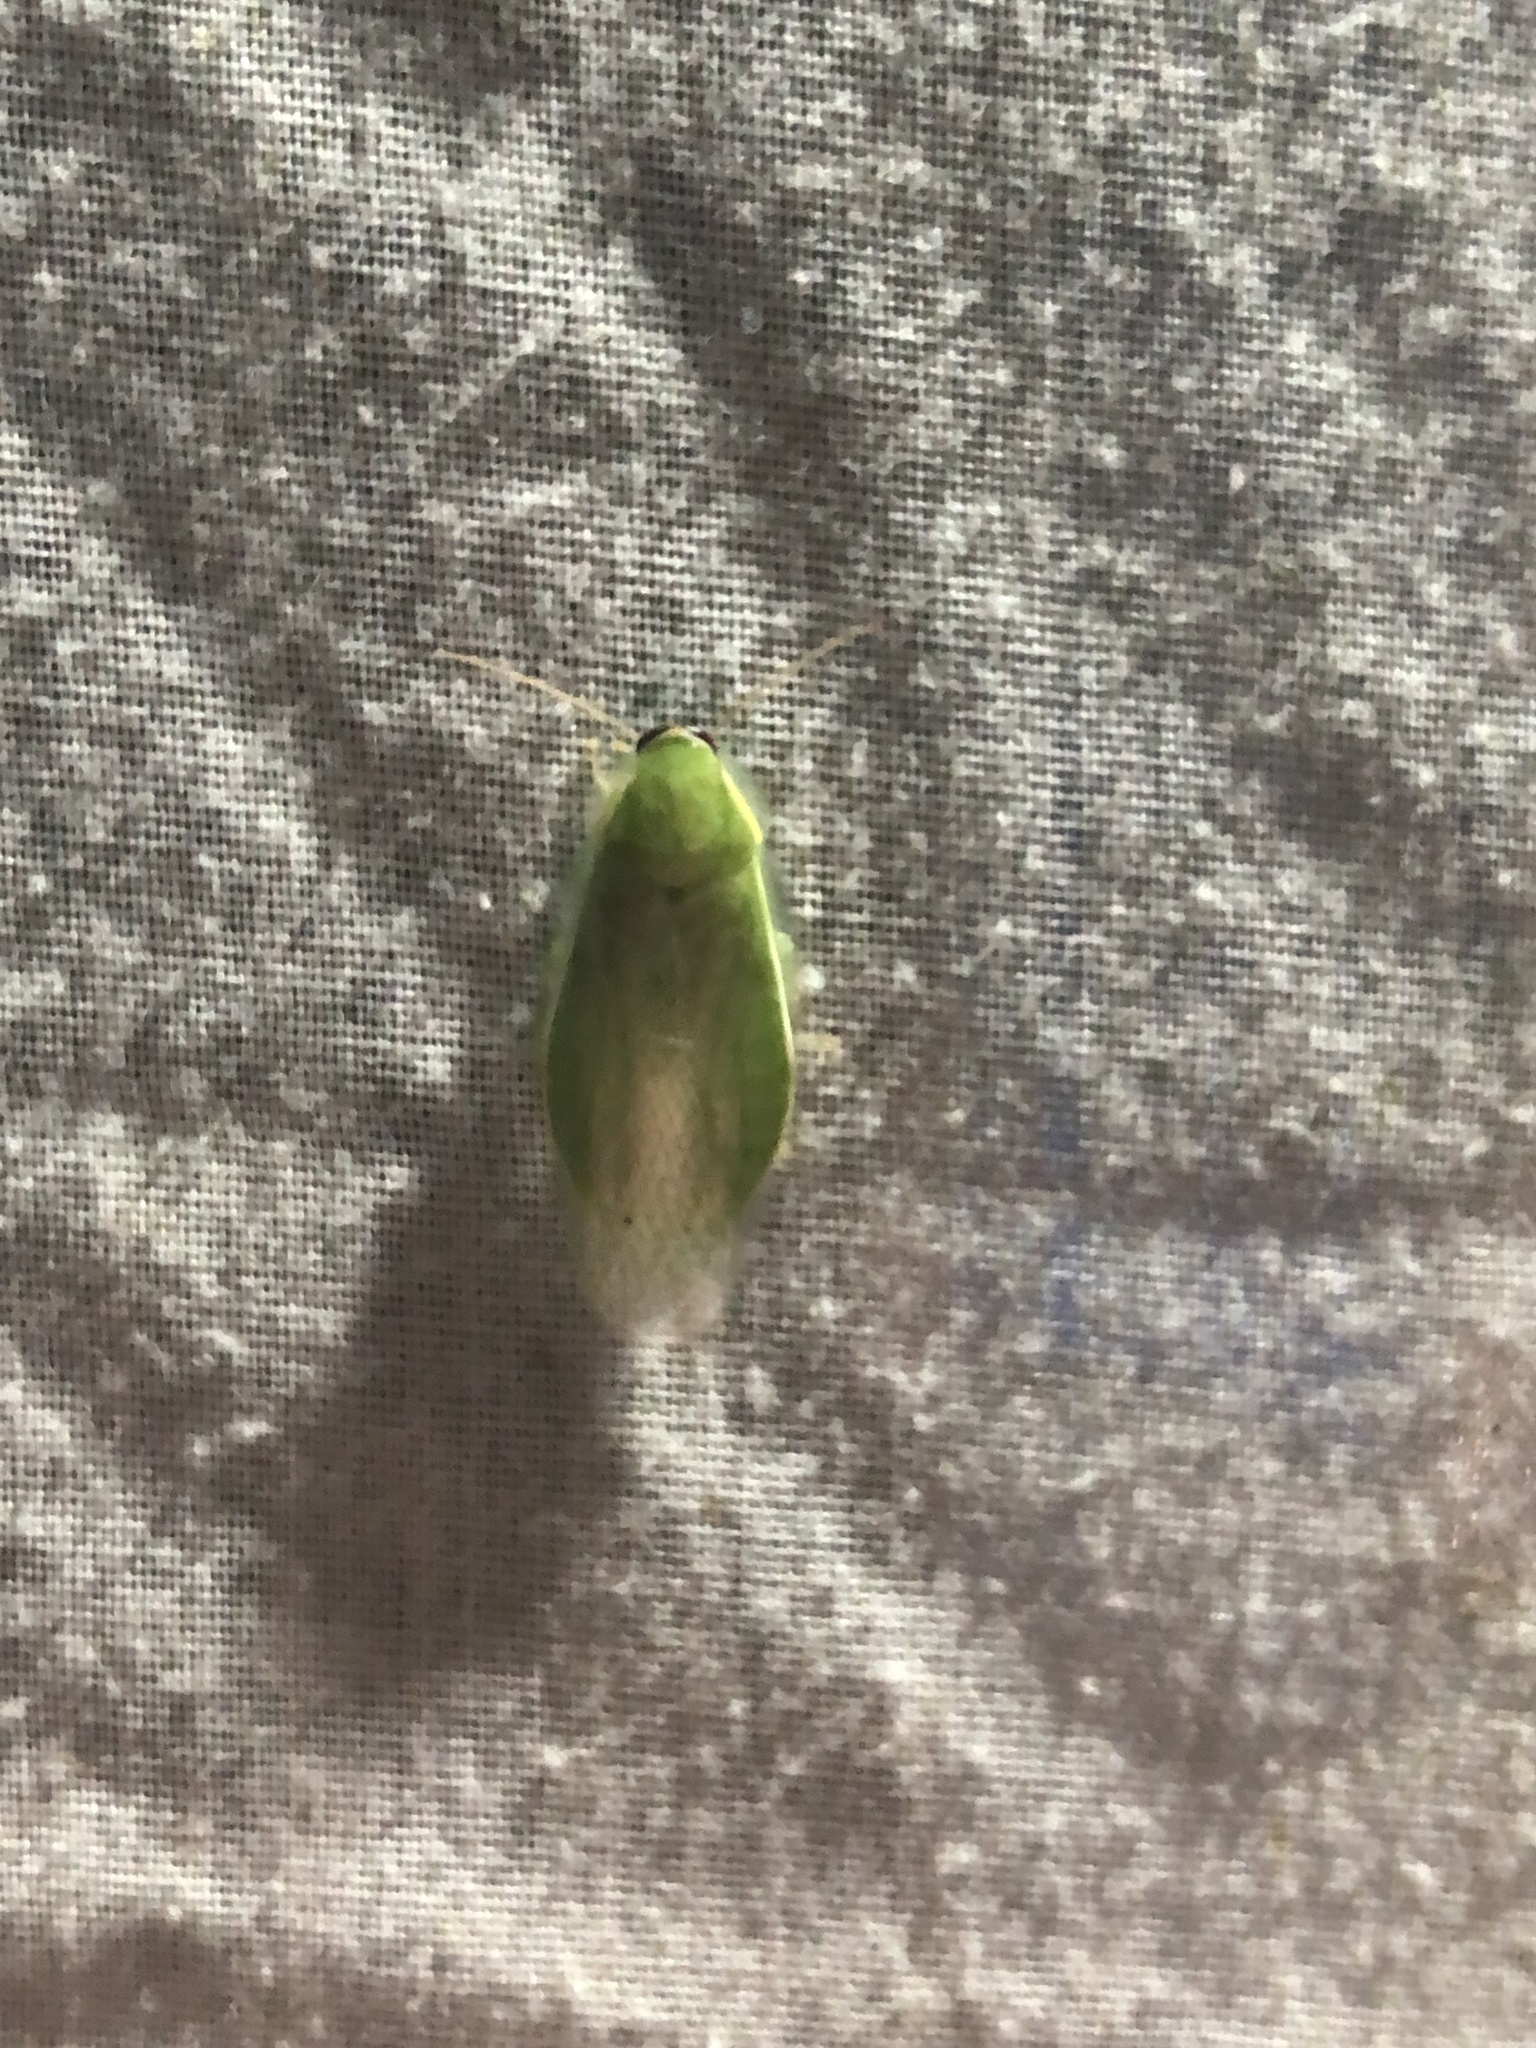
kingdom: Animalia
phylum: Arthropoda
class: Insecta
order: Blattodea
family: Blaberidae
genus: Panchlora
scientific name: Panchlora nivea
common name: Cuban cockroach
